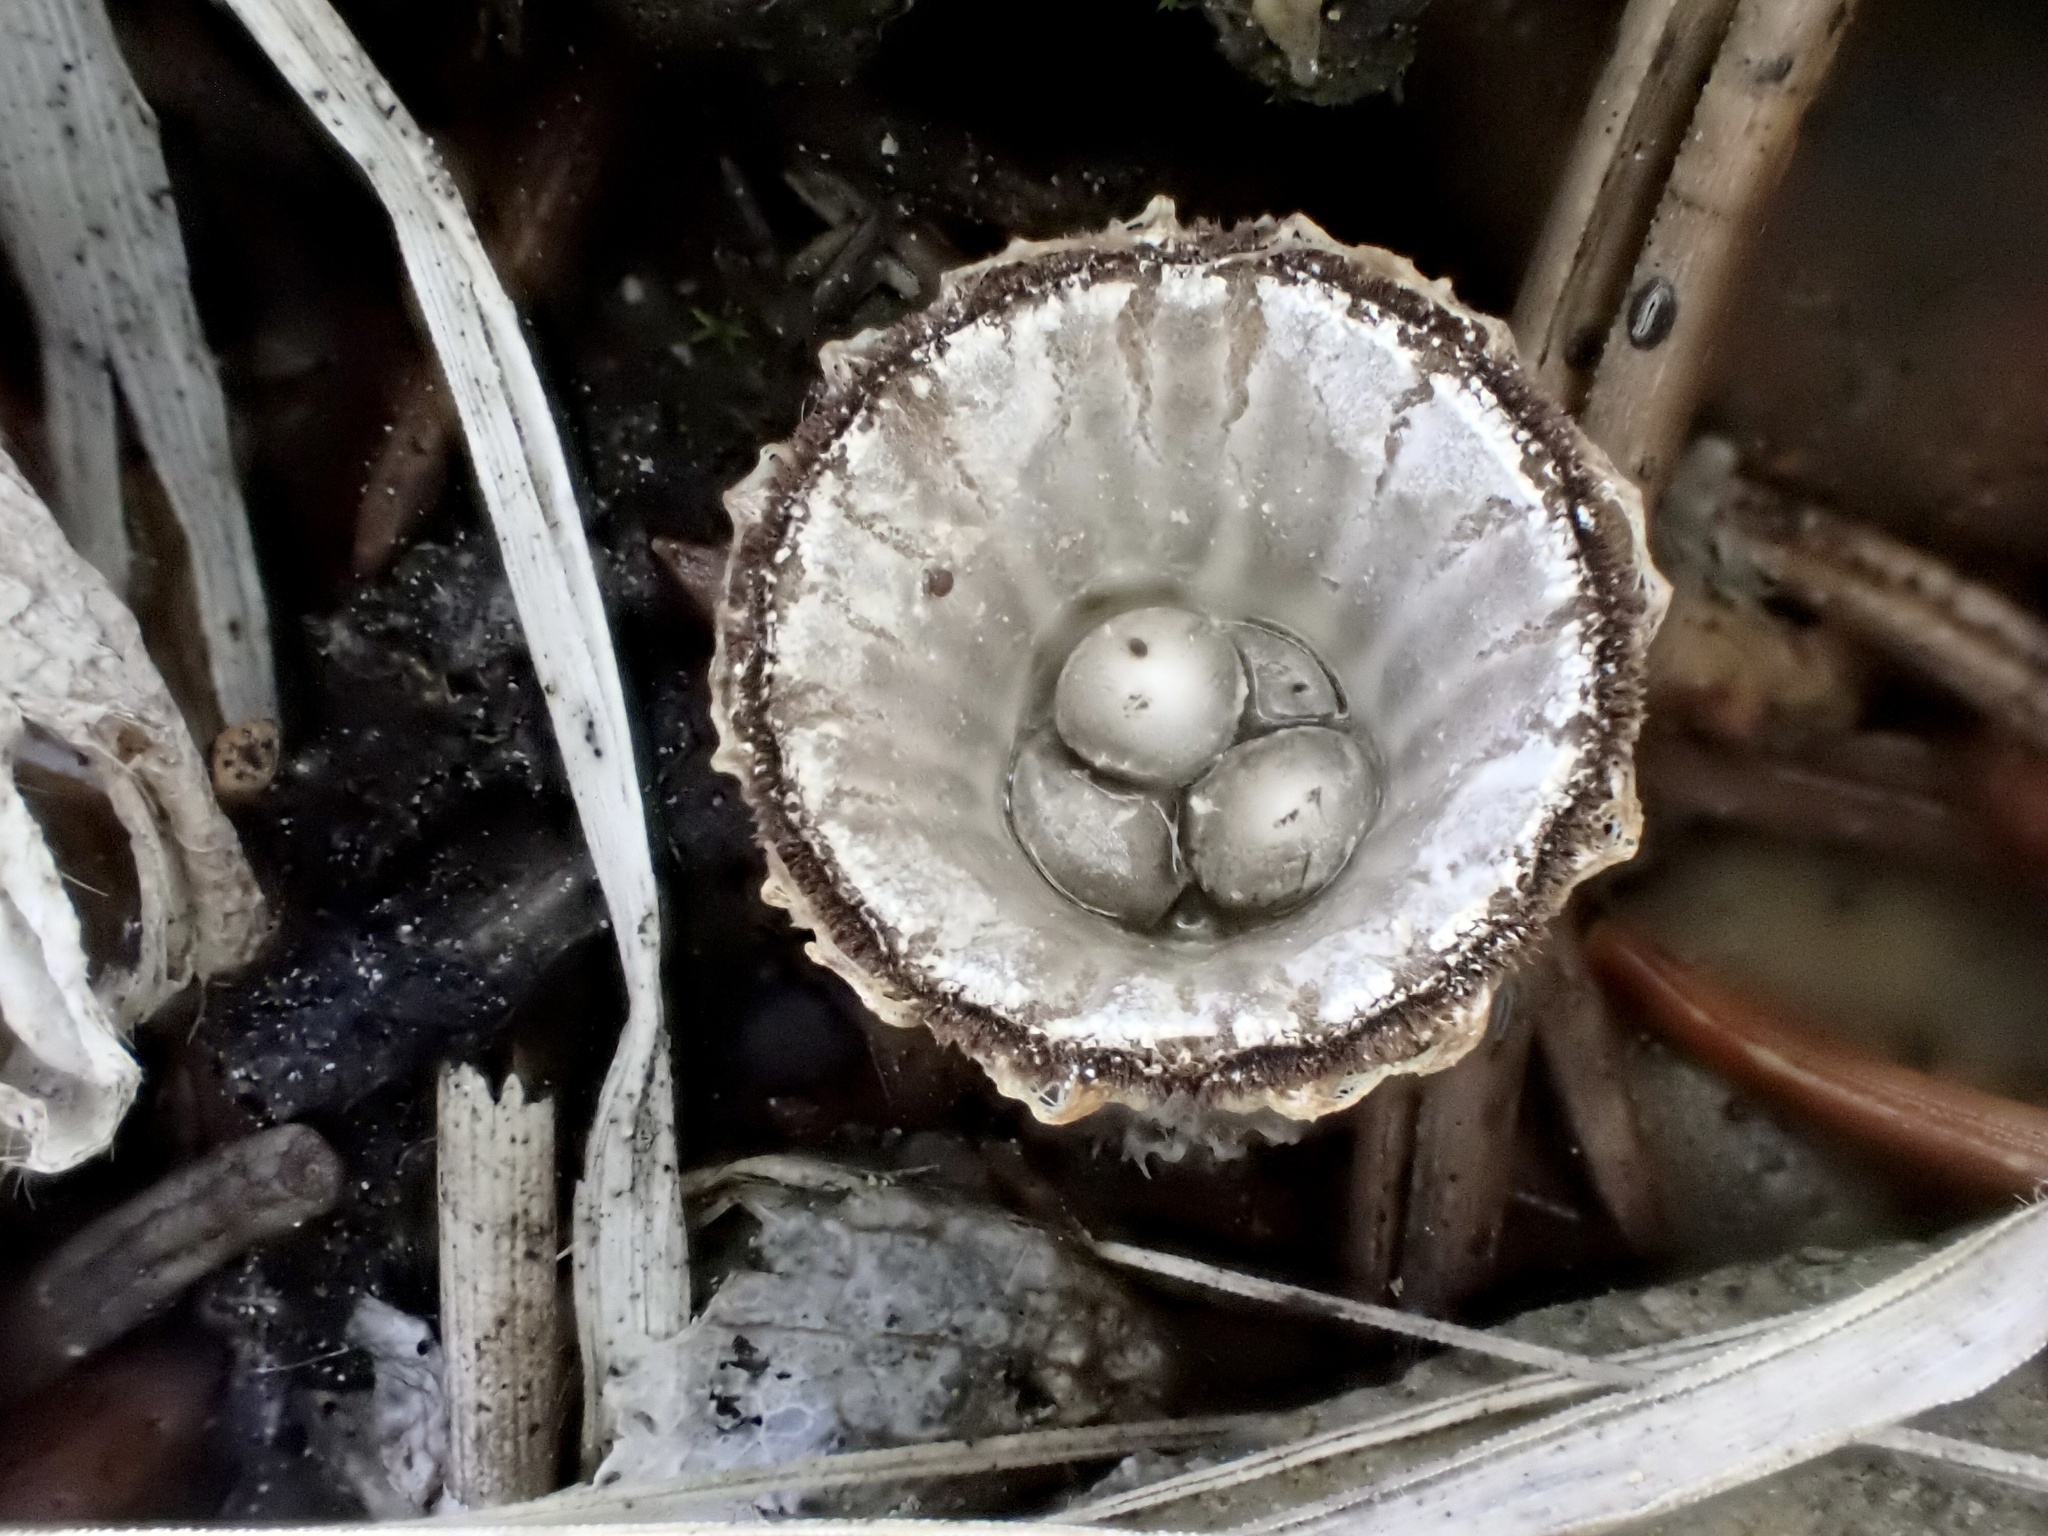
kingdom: Fungi
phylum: Basidiomycota
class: Agaricomycetes
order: Agaricales
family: Agaricaceae
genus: Cyathus
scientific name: Cyathus striatus
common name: Fluted bird's nest
